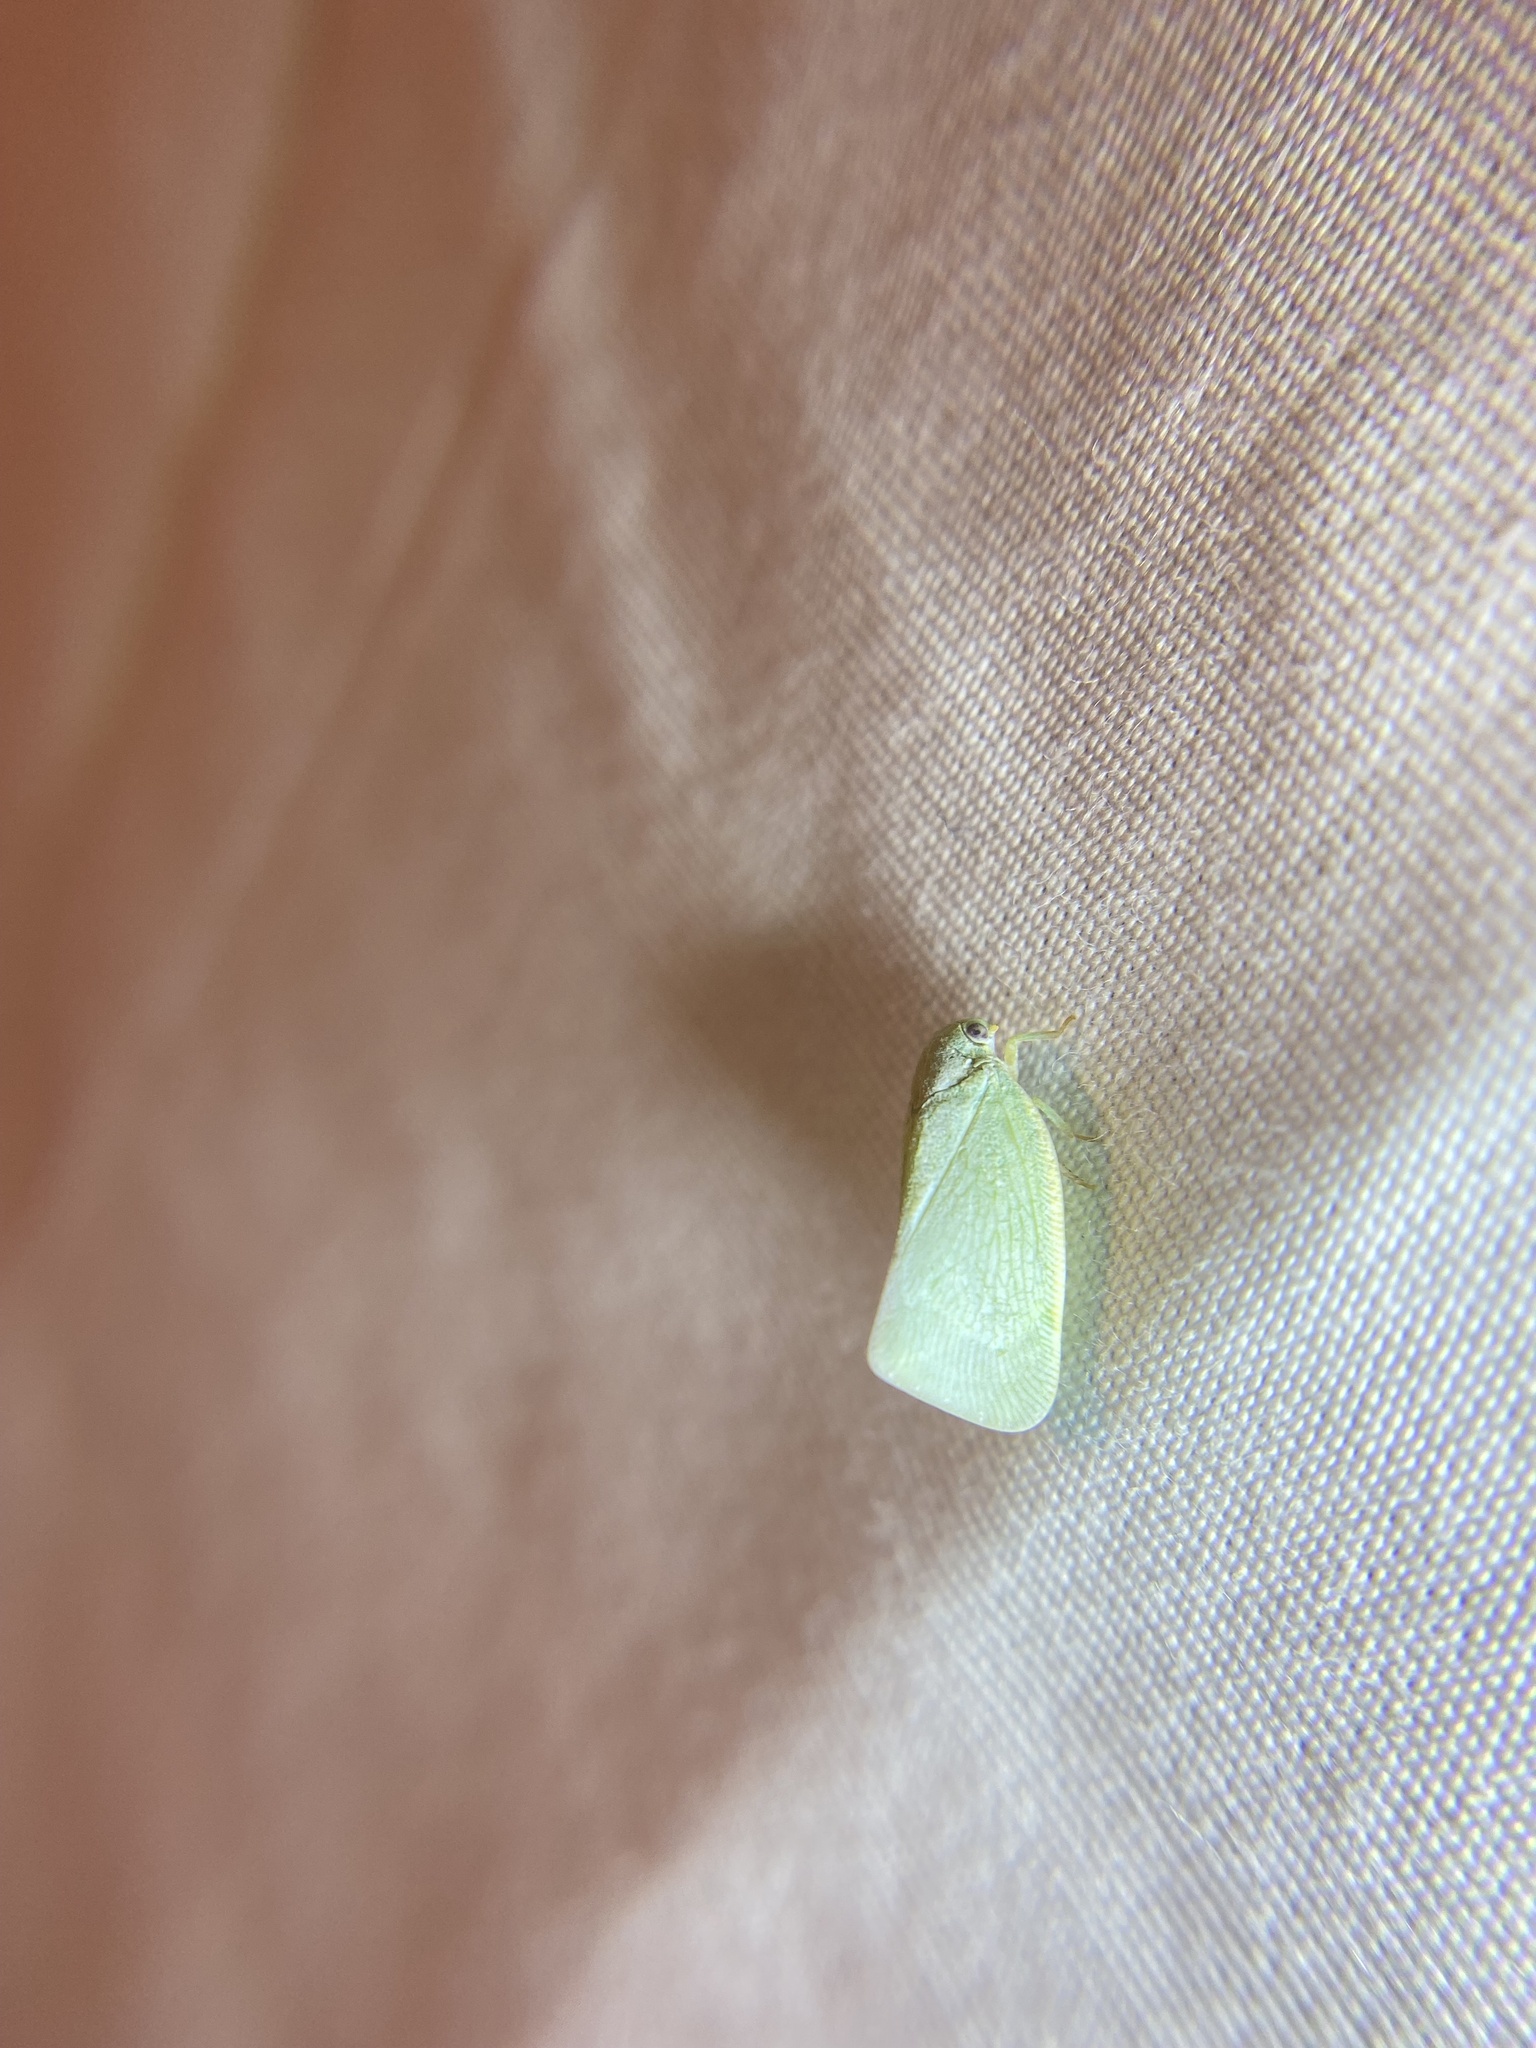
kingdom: Animalia
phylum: Arthropoda
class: Insecta
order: Hemiptera
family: Flatidae
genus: Flatormenis
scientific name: Flatormenis proxima
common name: Northern flatid planthopper
